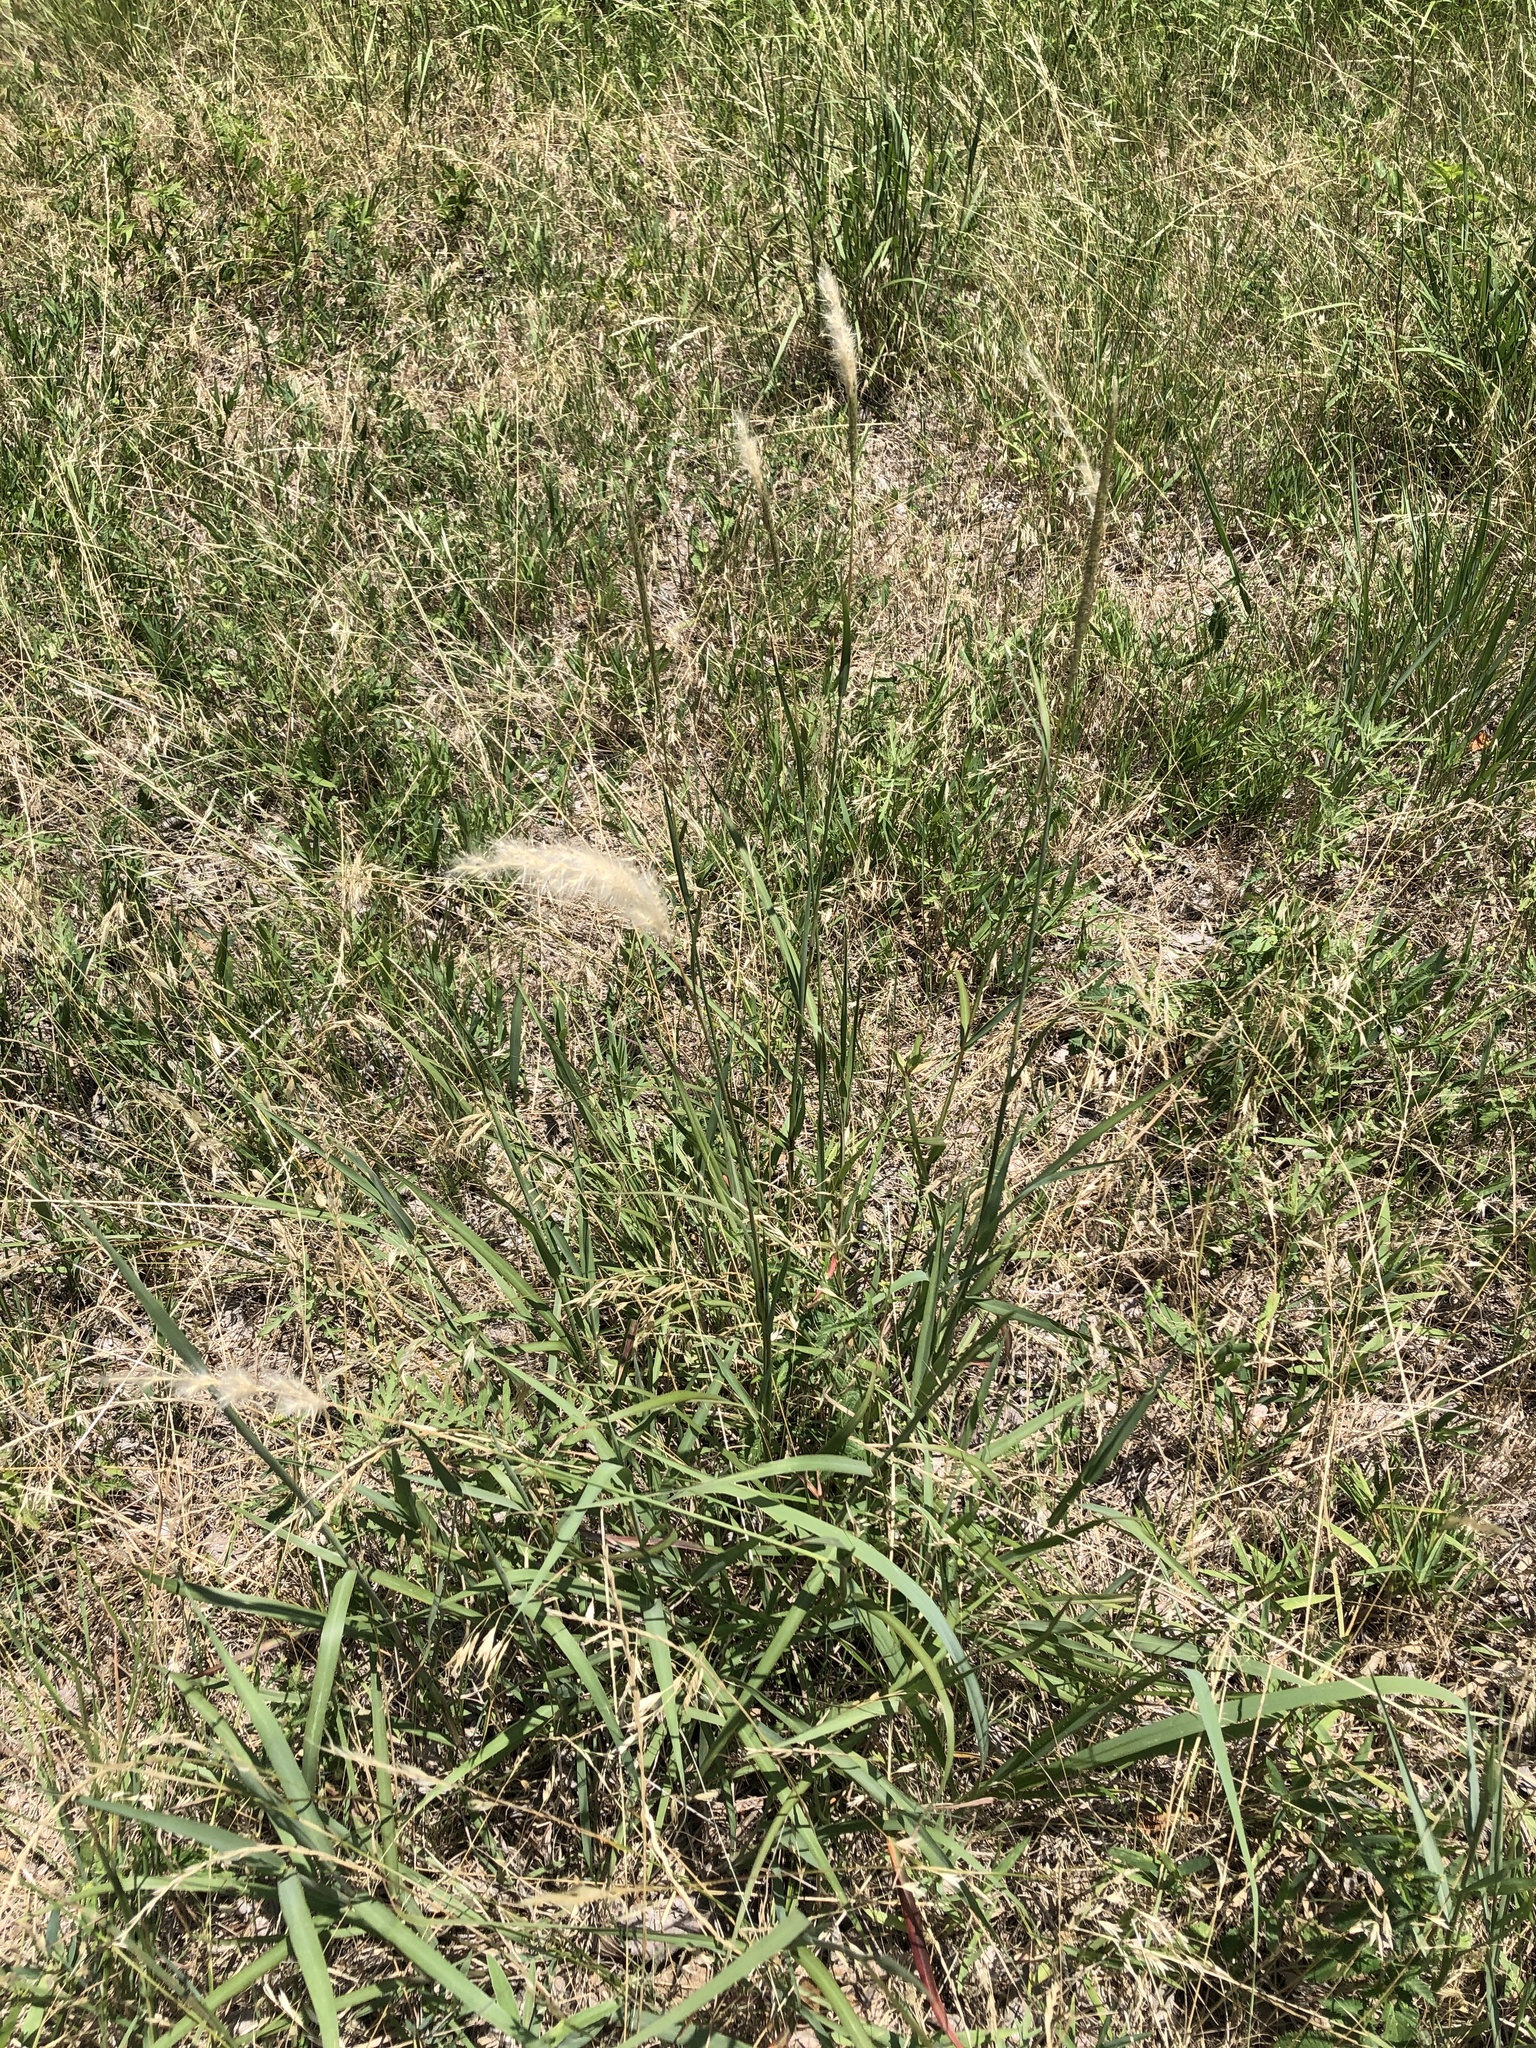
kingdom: Plantae
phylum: Tracheophyta
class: Liliopsida
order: Poales
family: Poaceae
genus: Bothriochloa
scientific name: Bothriochloa torreyana
